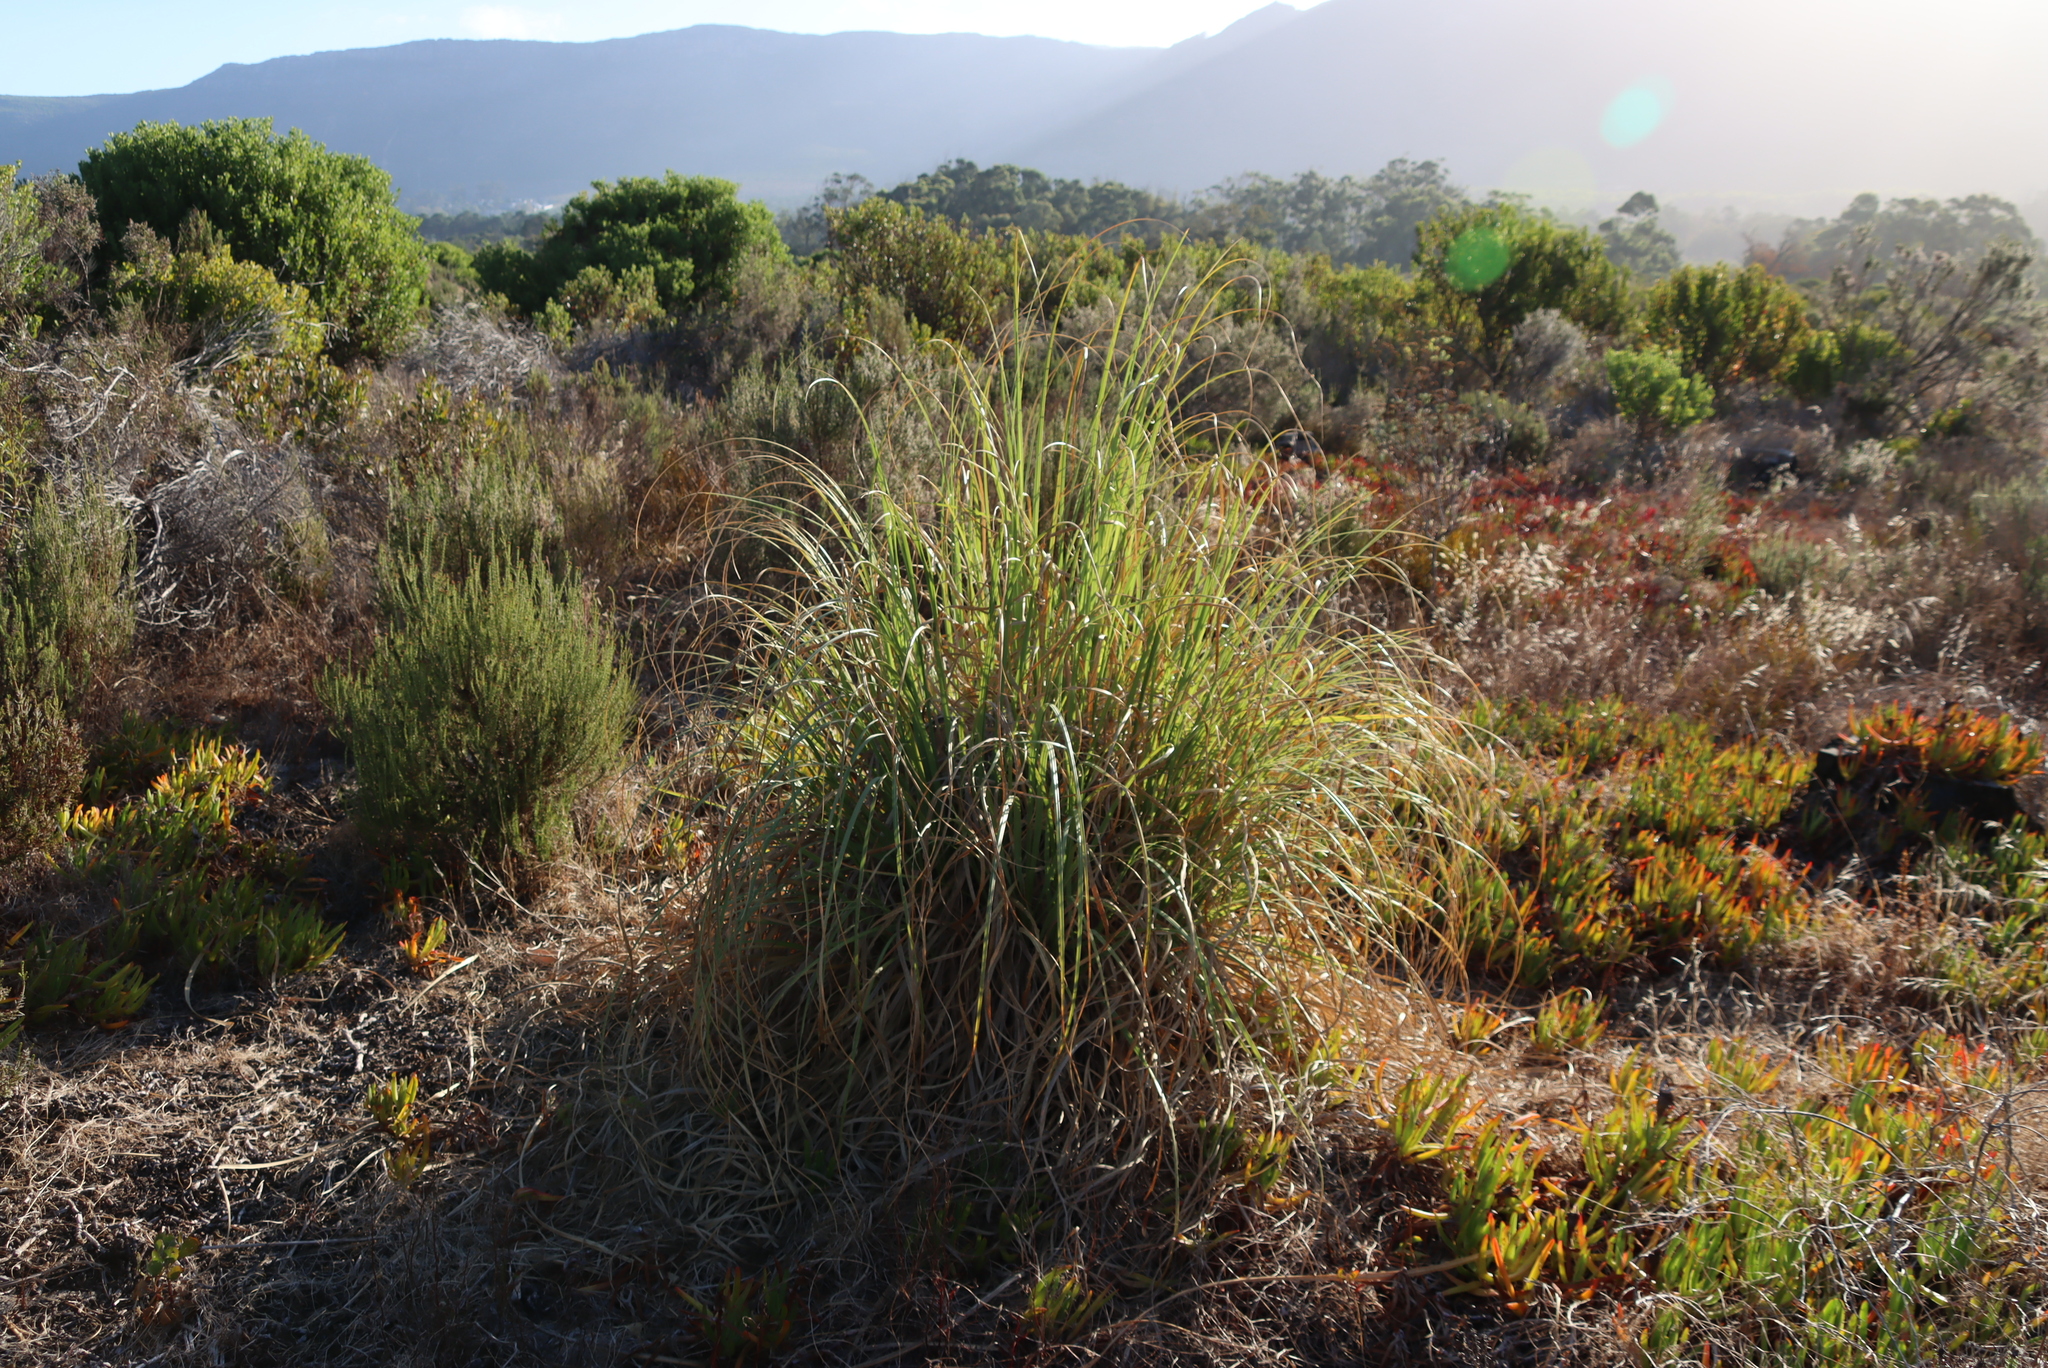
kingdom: Plantae
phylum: Tracheophyta
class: Liliopsida
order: Poales
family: Poaceae
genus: Cortaderia
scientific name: Cortaderia selloana
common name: Uruguayan pampas grass
